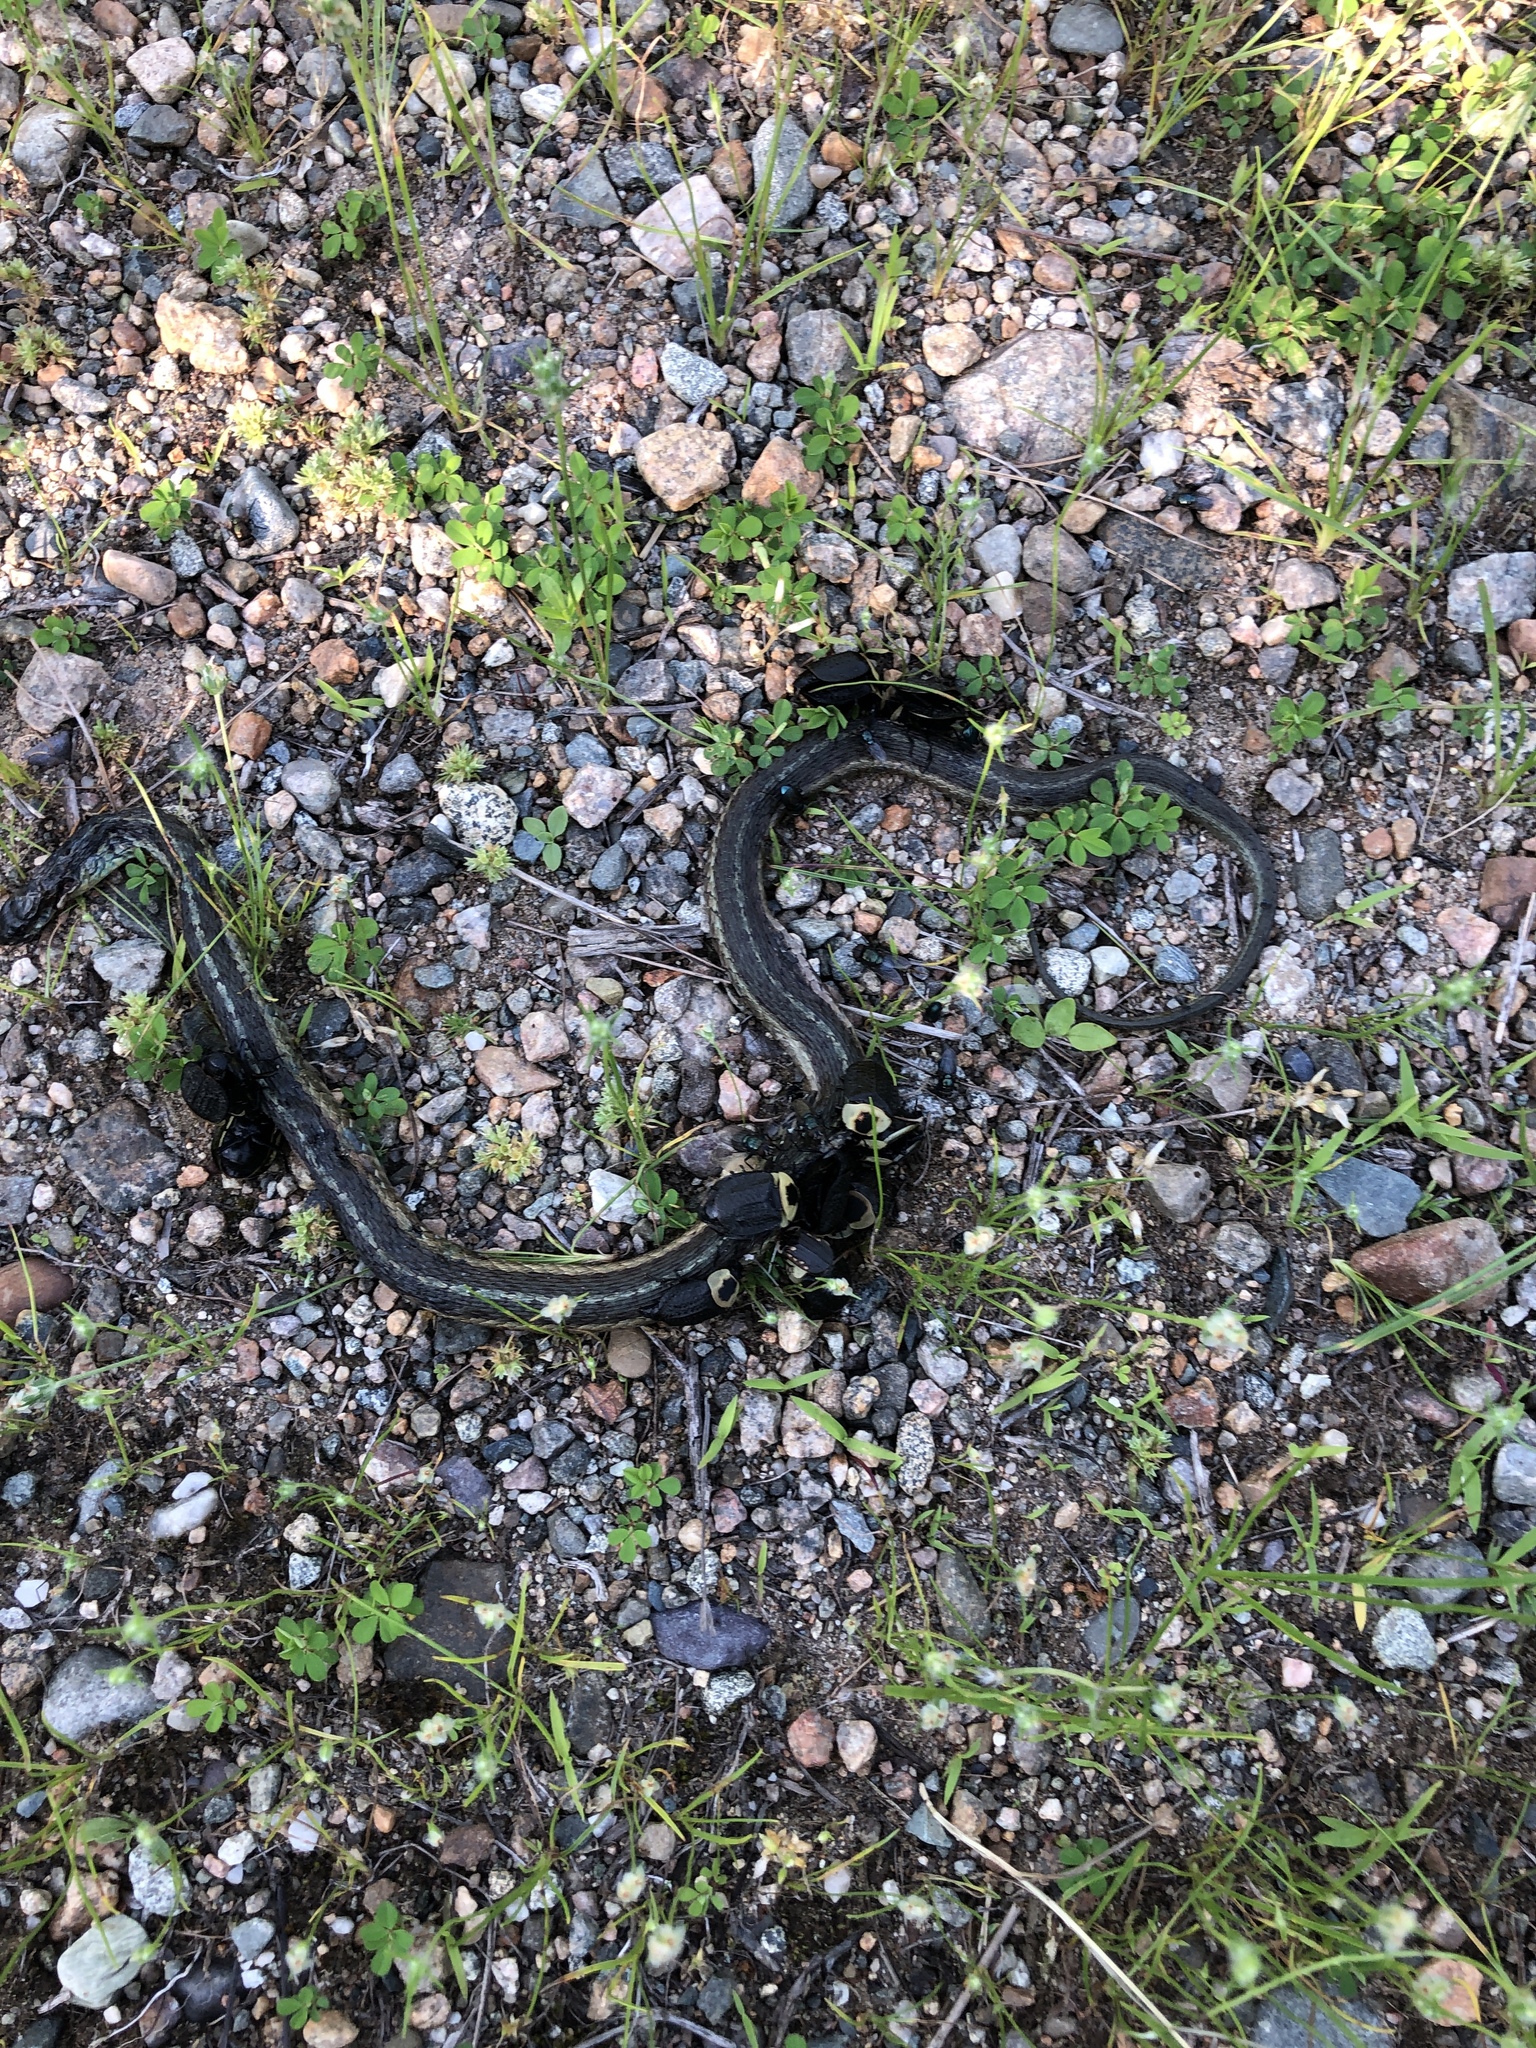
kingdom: Animalia
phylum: Arthropoda
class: Insecta
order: Coleoptera
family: Staphylinidae
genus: Necrophila
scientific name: Necrophila americana
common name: American carrion beetle
